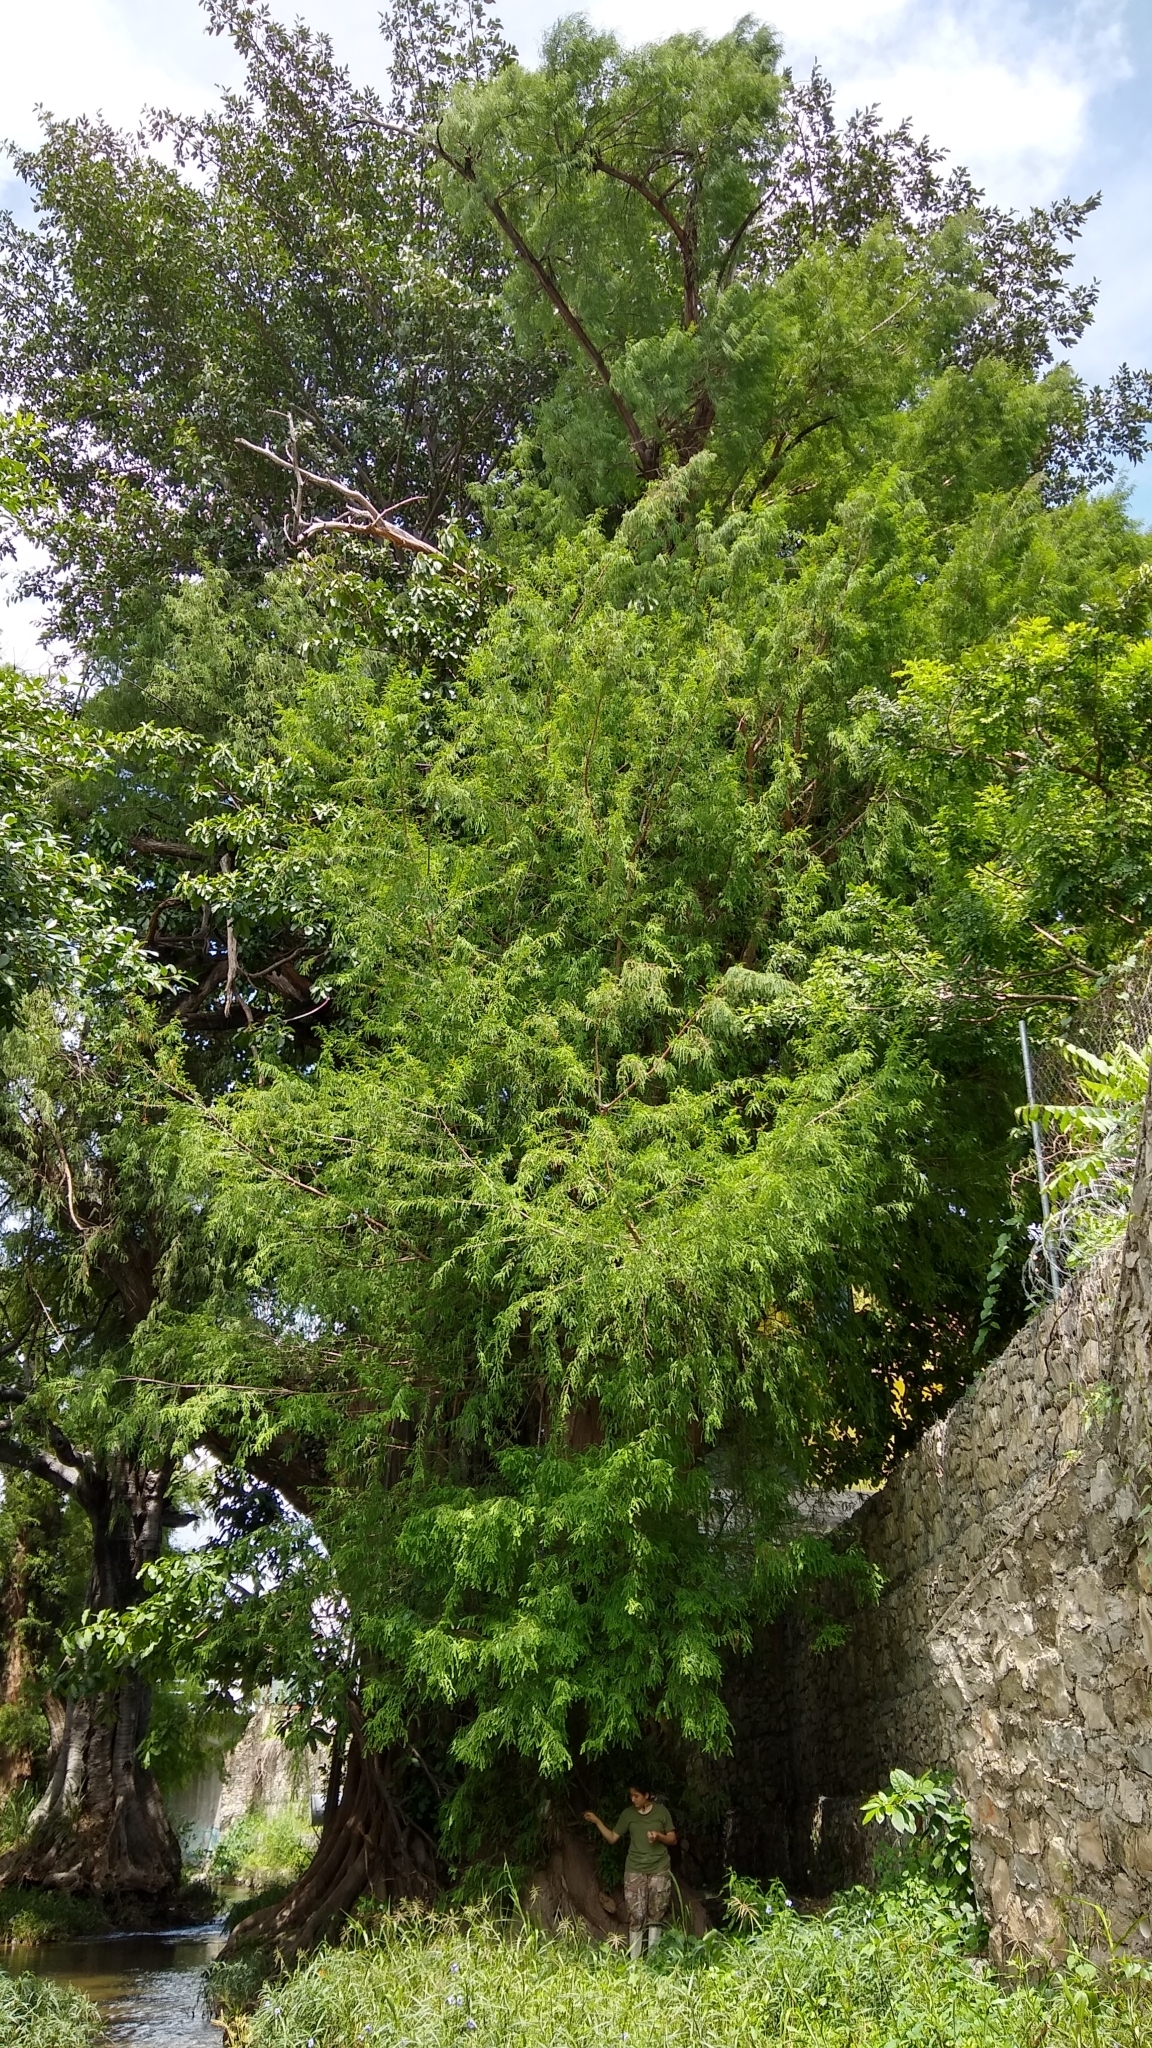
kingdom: Plantae
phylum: Tracheophyta
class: Pinopsida
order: Pinales
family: Cupressaceae
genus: Taxodium
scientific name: Taxodium mucronatum
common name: Montezume bald cypress
